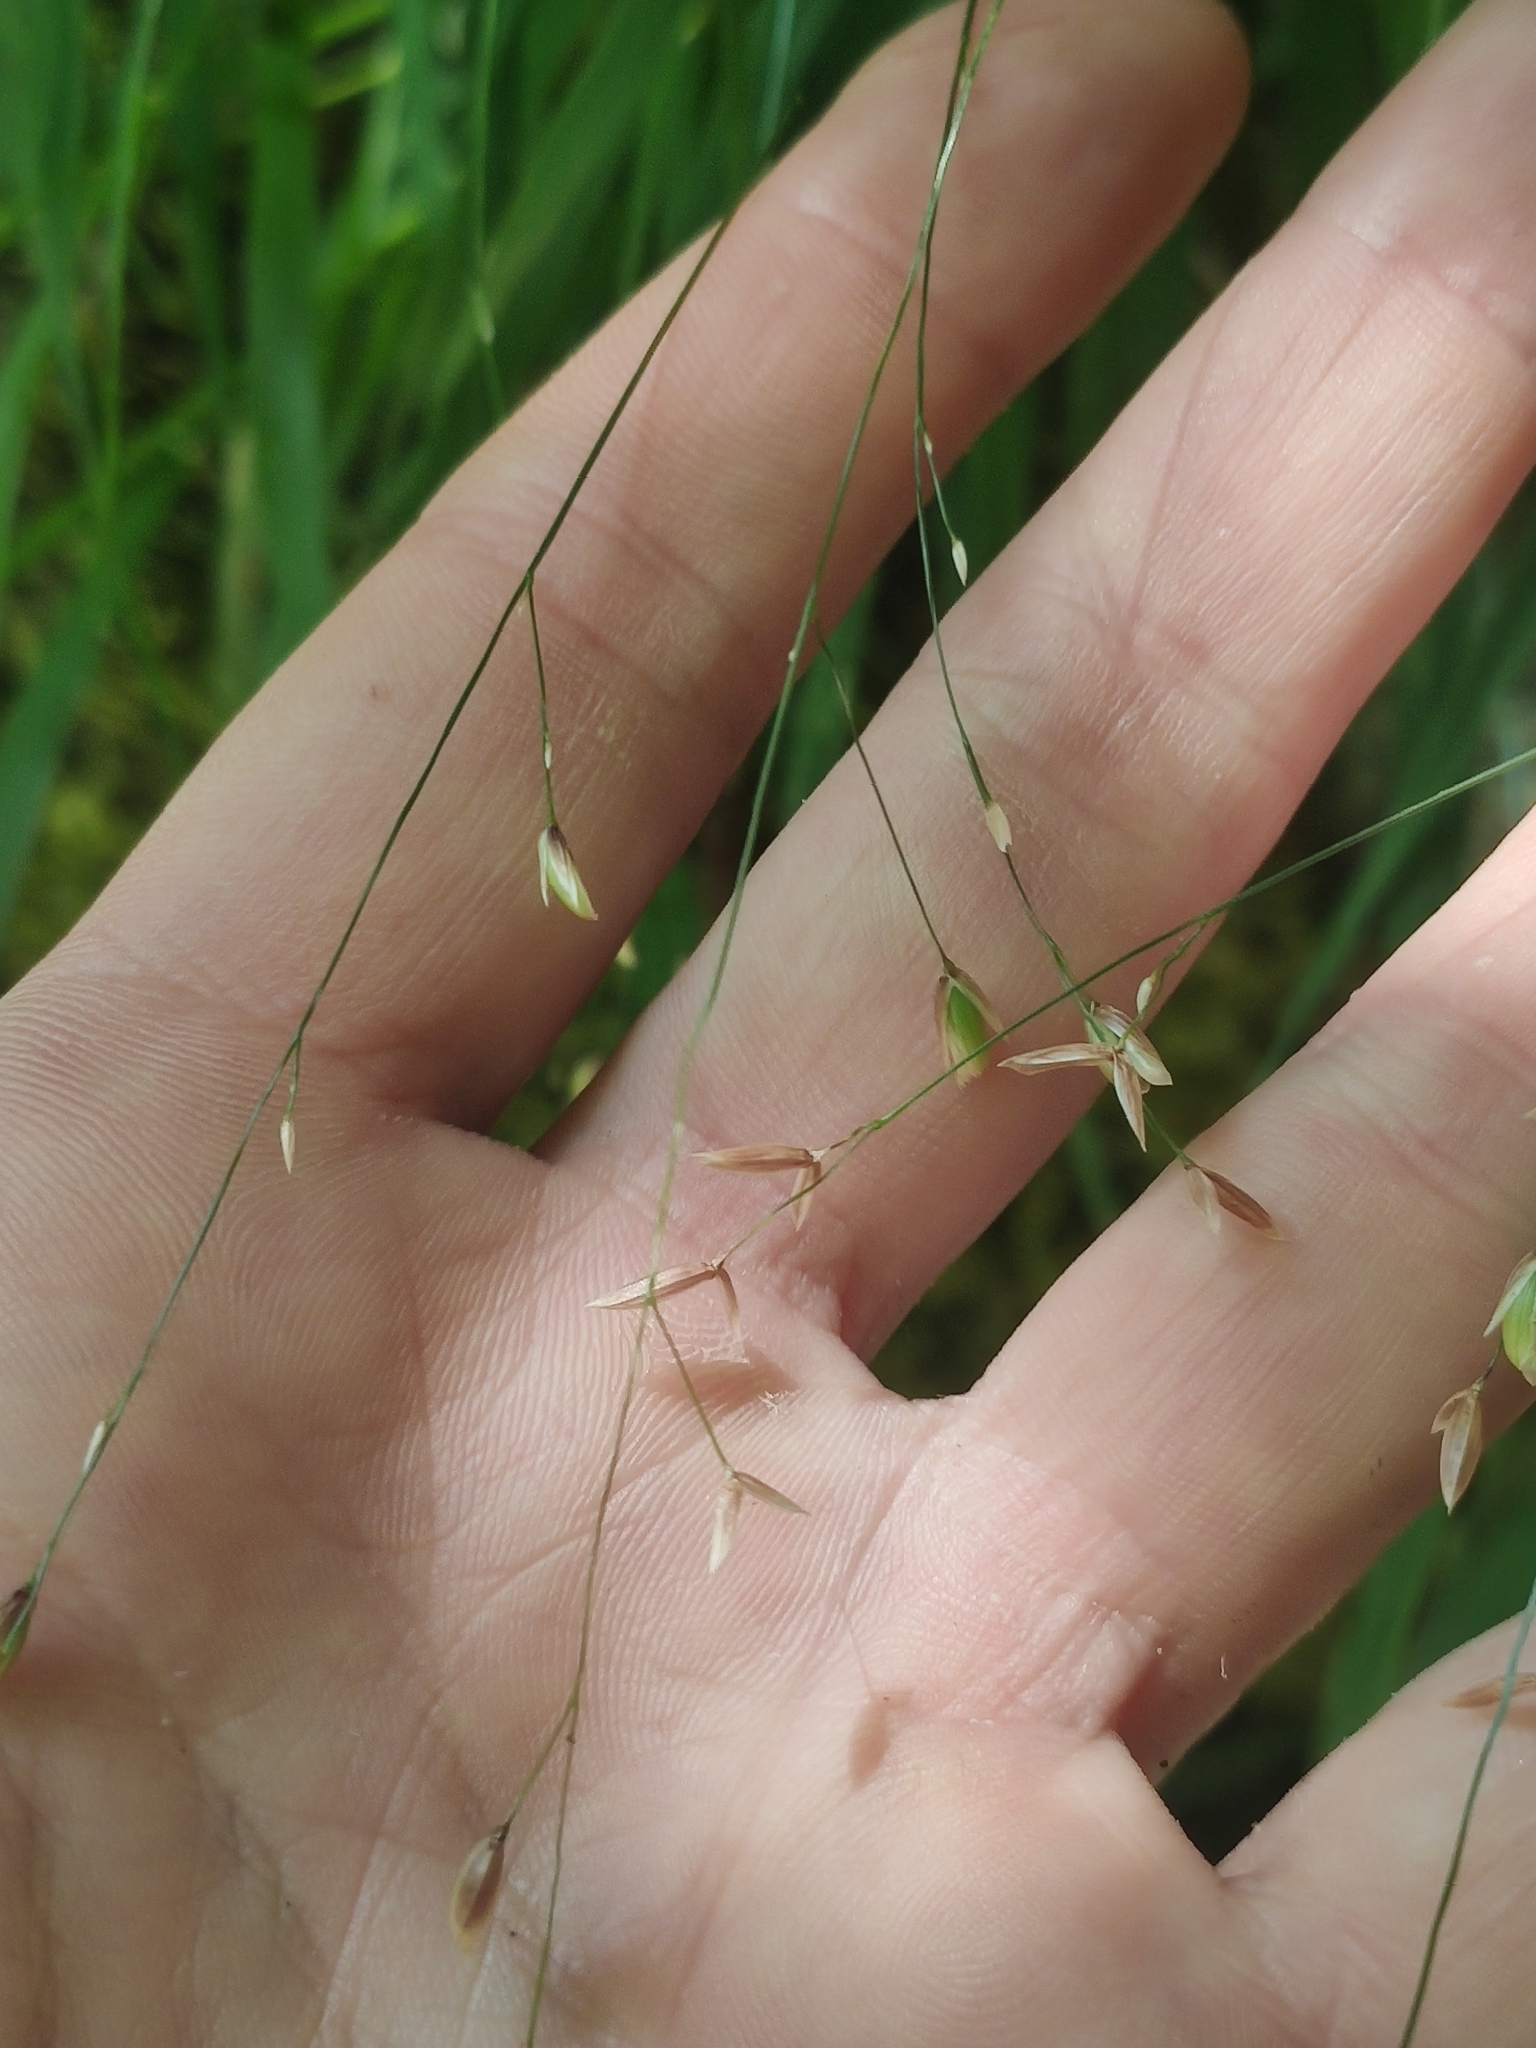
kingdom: Plantae
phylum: Tracheophyta
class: Liliopsida
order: Poales
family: Poaceae
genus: Melica
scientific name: Melica uniflora
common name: Wood melick
